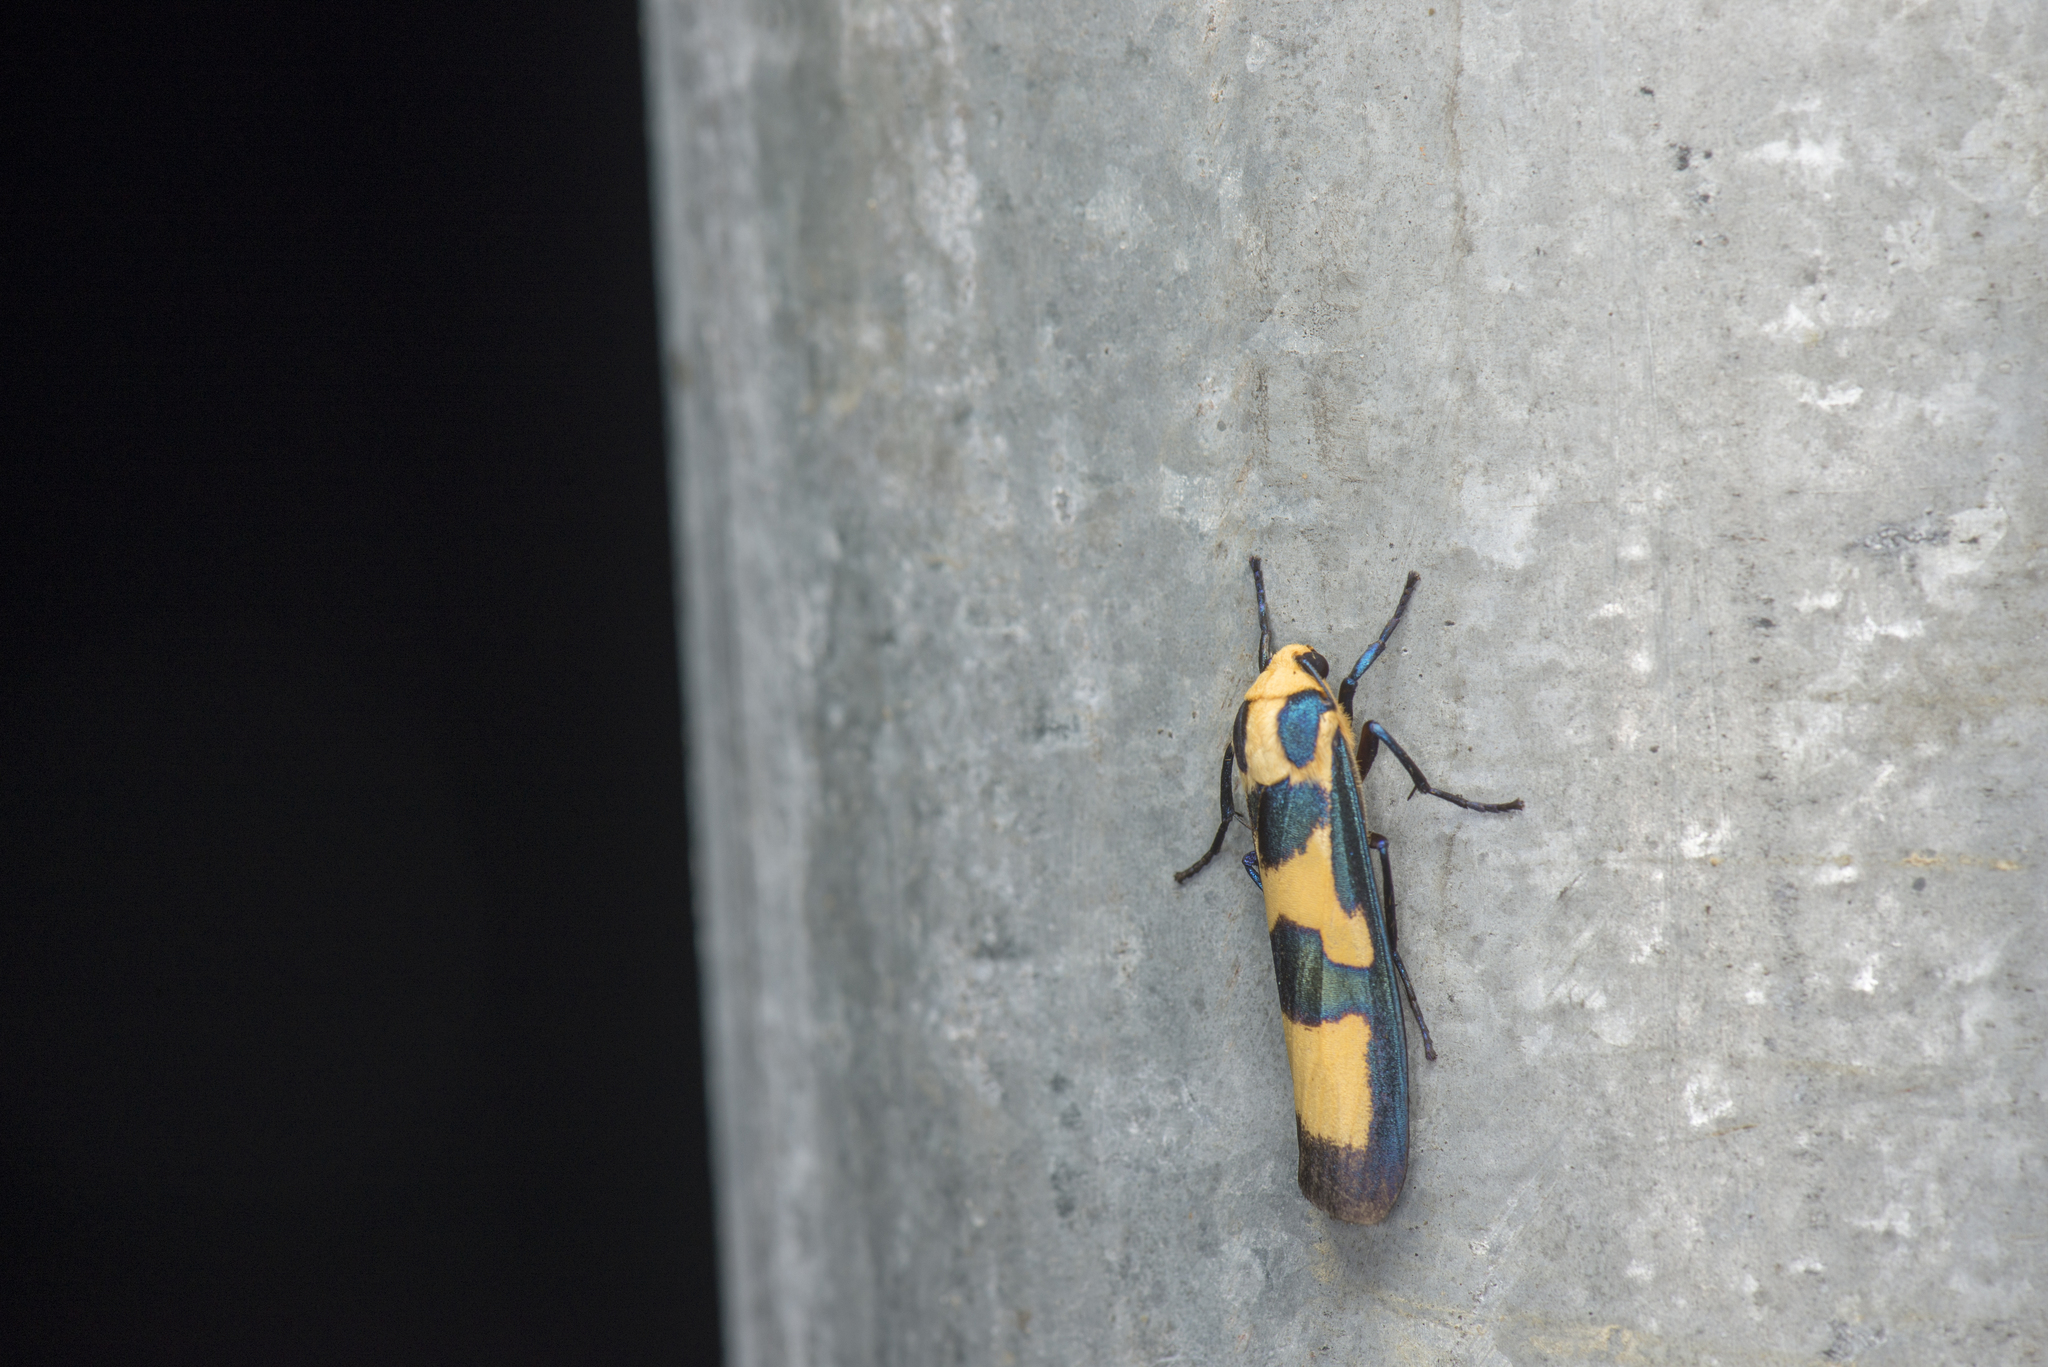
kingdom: Animalia
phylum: Arthropoda
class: Insecta
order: Lepidoptera
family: Erebidae
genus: Chrysaeglia
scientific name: Chrysaeglia magnifica
